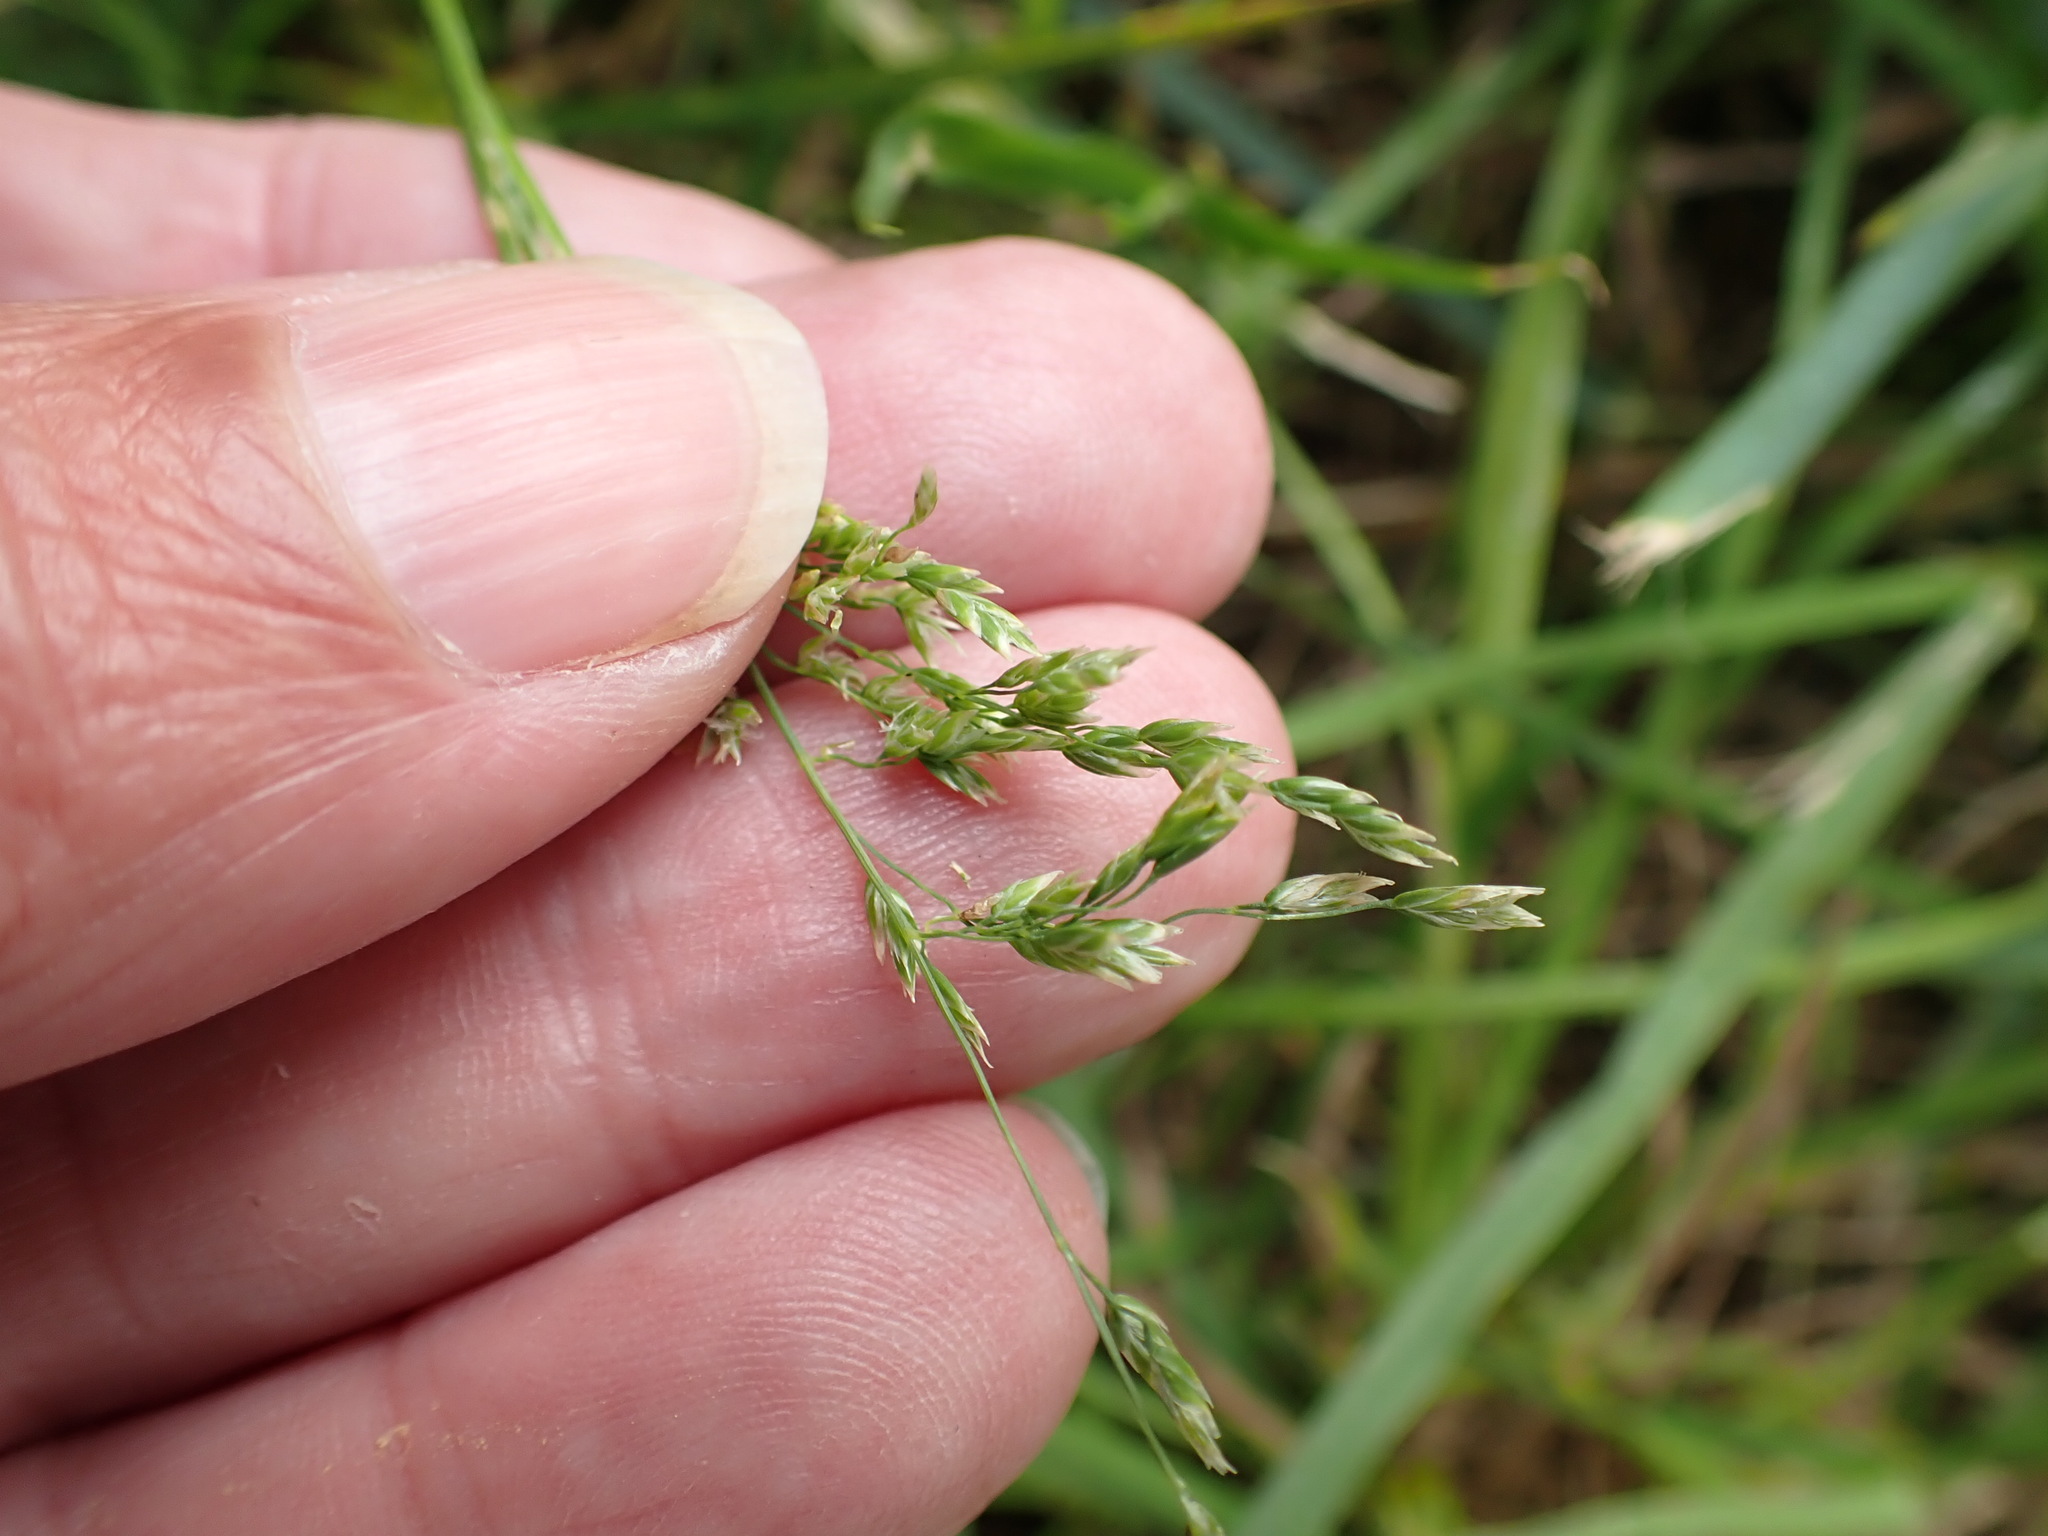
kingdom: Plantae
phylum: Tracheophyta
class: Liliopsida
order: Poales
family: Poaceae
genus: Poa
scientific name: Poa annua
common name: Annual bluegrass
